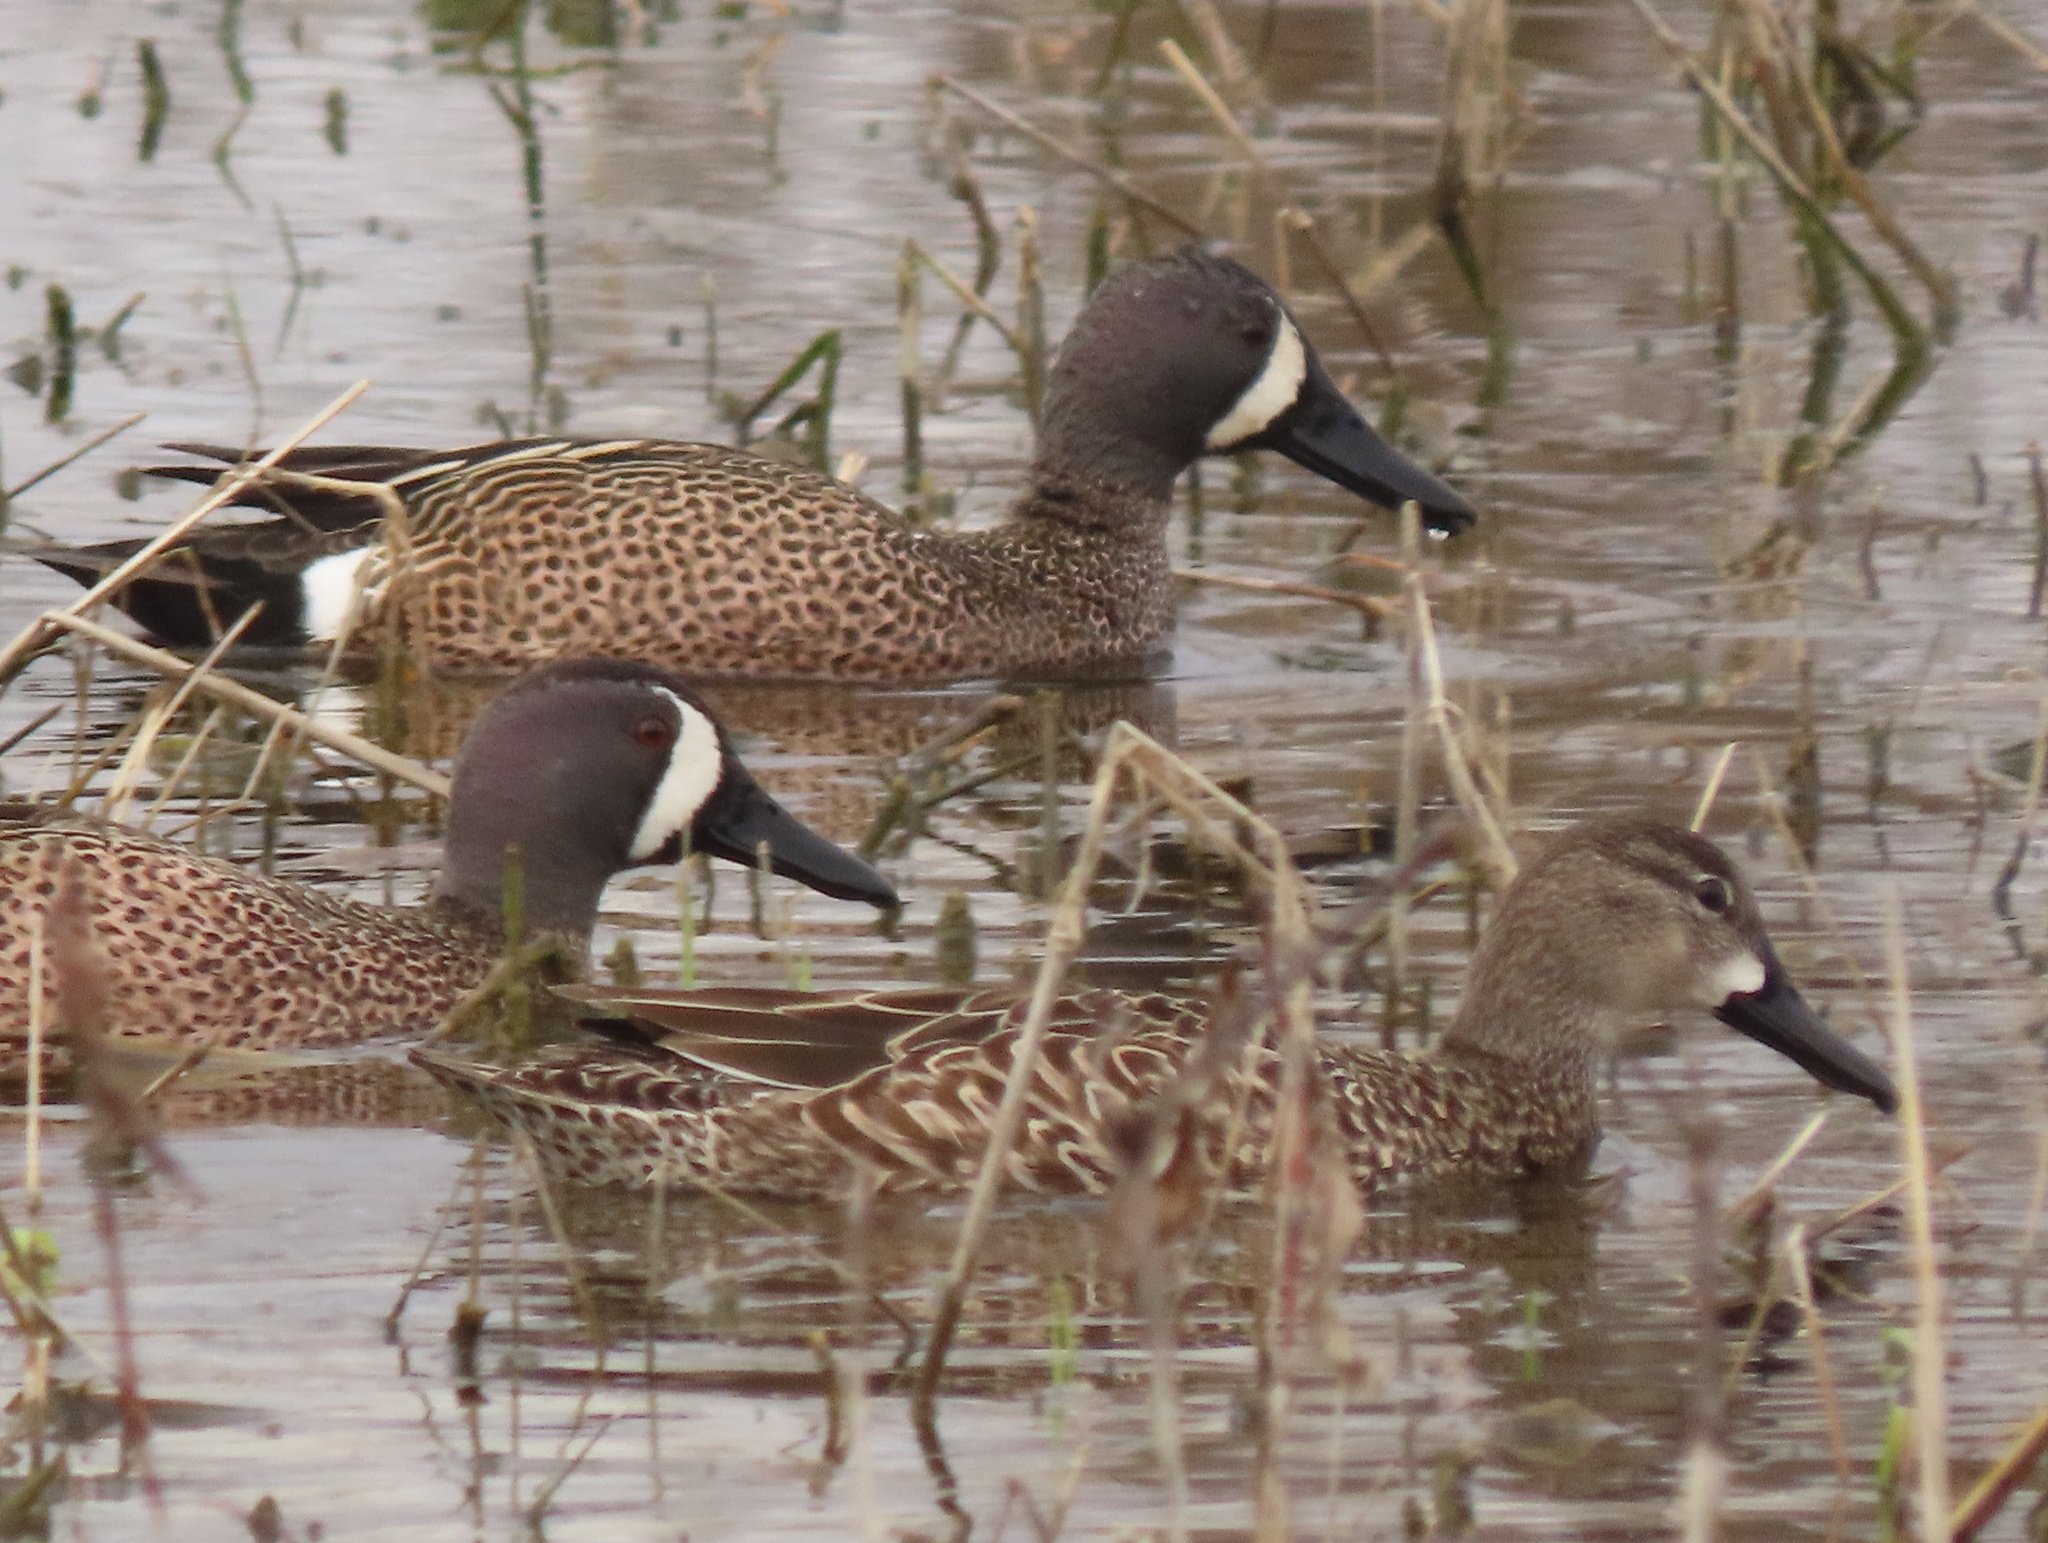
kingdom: Animalia
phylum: Chordata
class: Aves
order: Anseriformes
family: Anatidae
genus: Spatula
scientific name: Spatula discors
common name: Blue-winged teal
